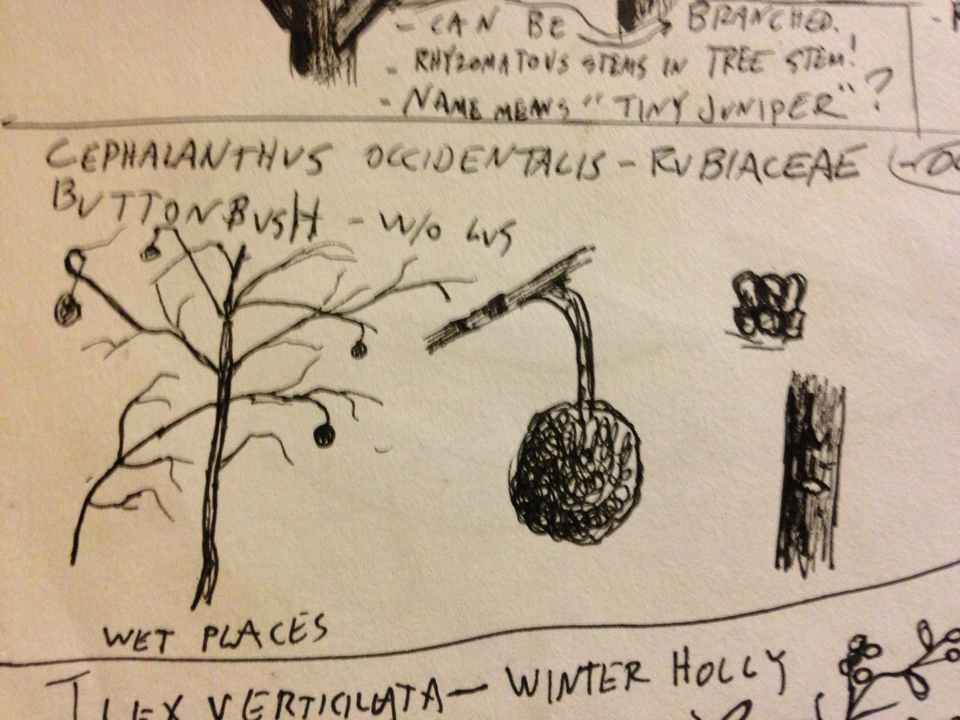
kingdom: Plantae
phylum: Tracheophyta
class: Magnoliopsida
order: Gentianales
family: Rubiaceae
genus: Cephalanthus
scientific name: Cephalanthus occidentalis
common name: Button-willow
